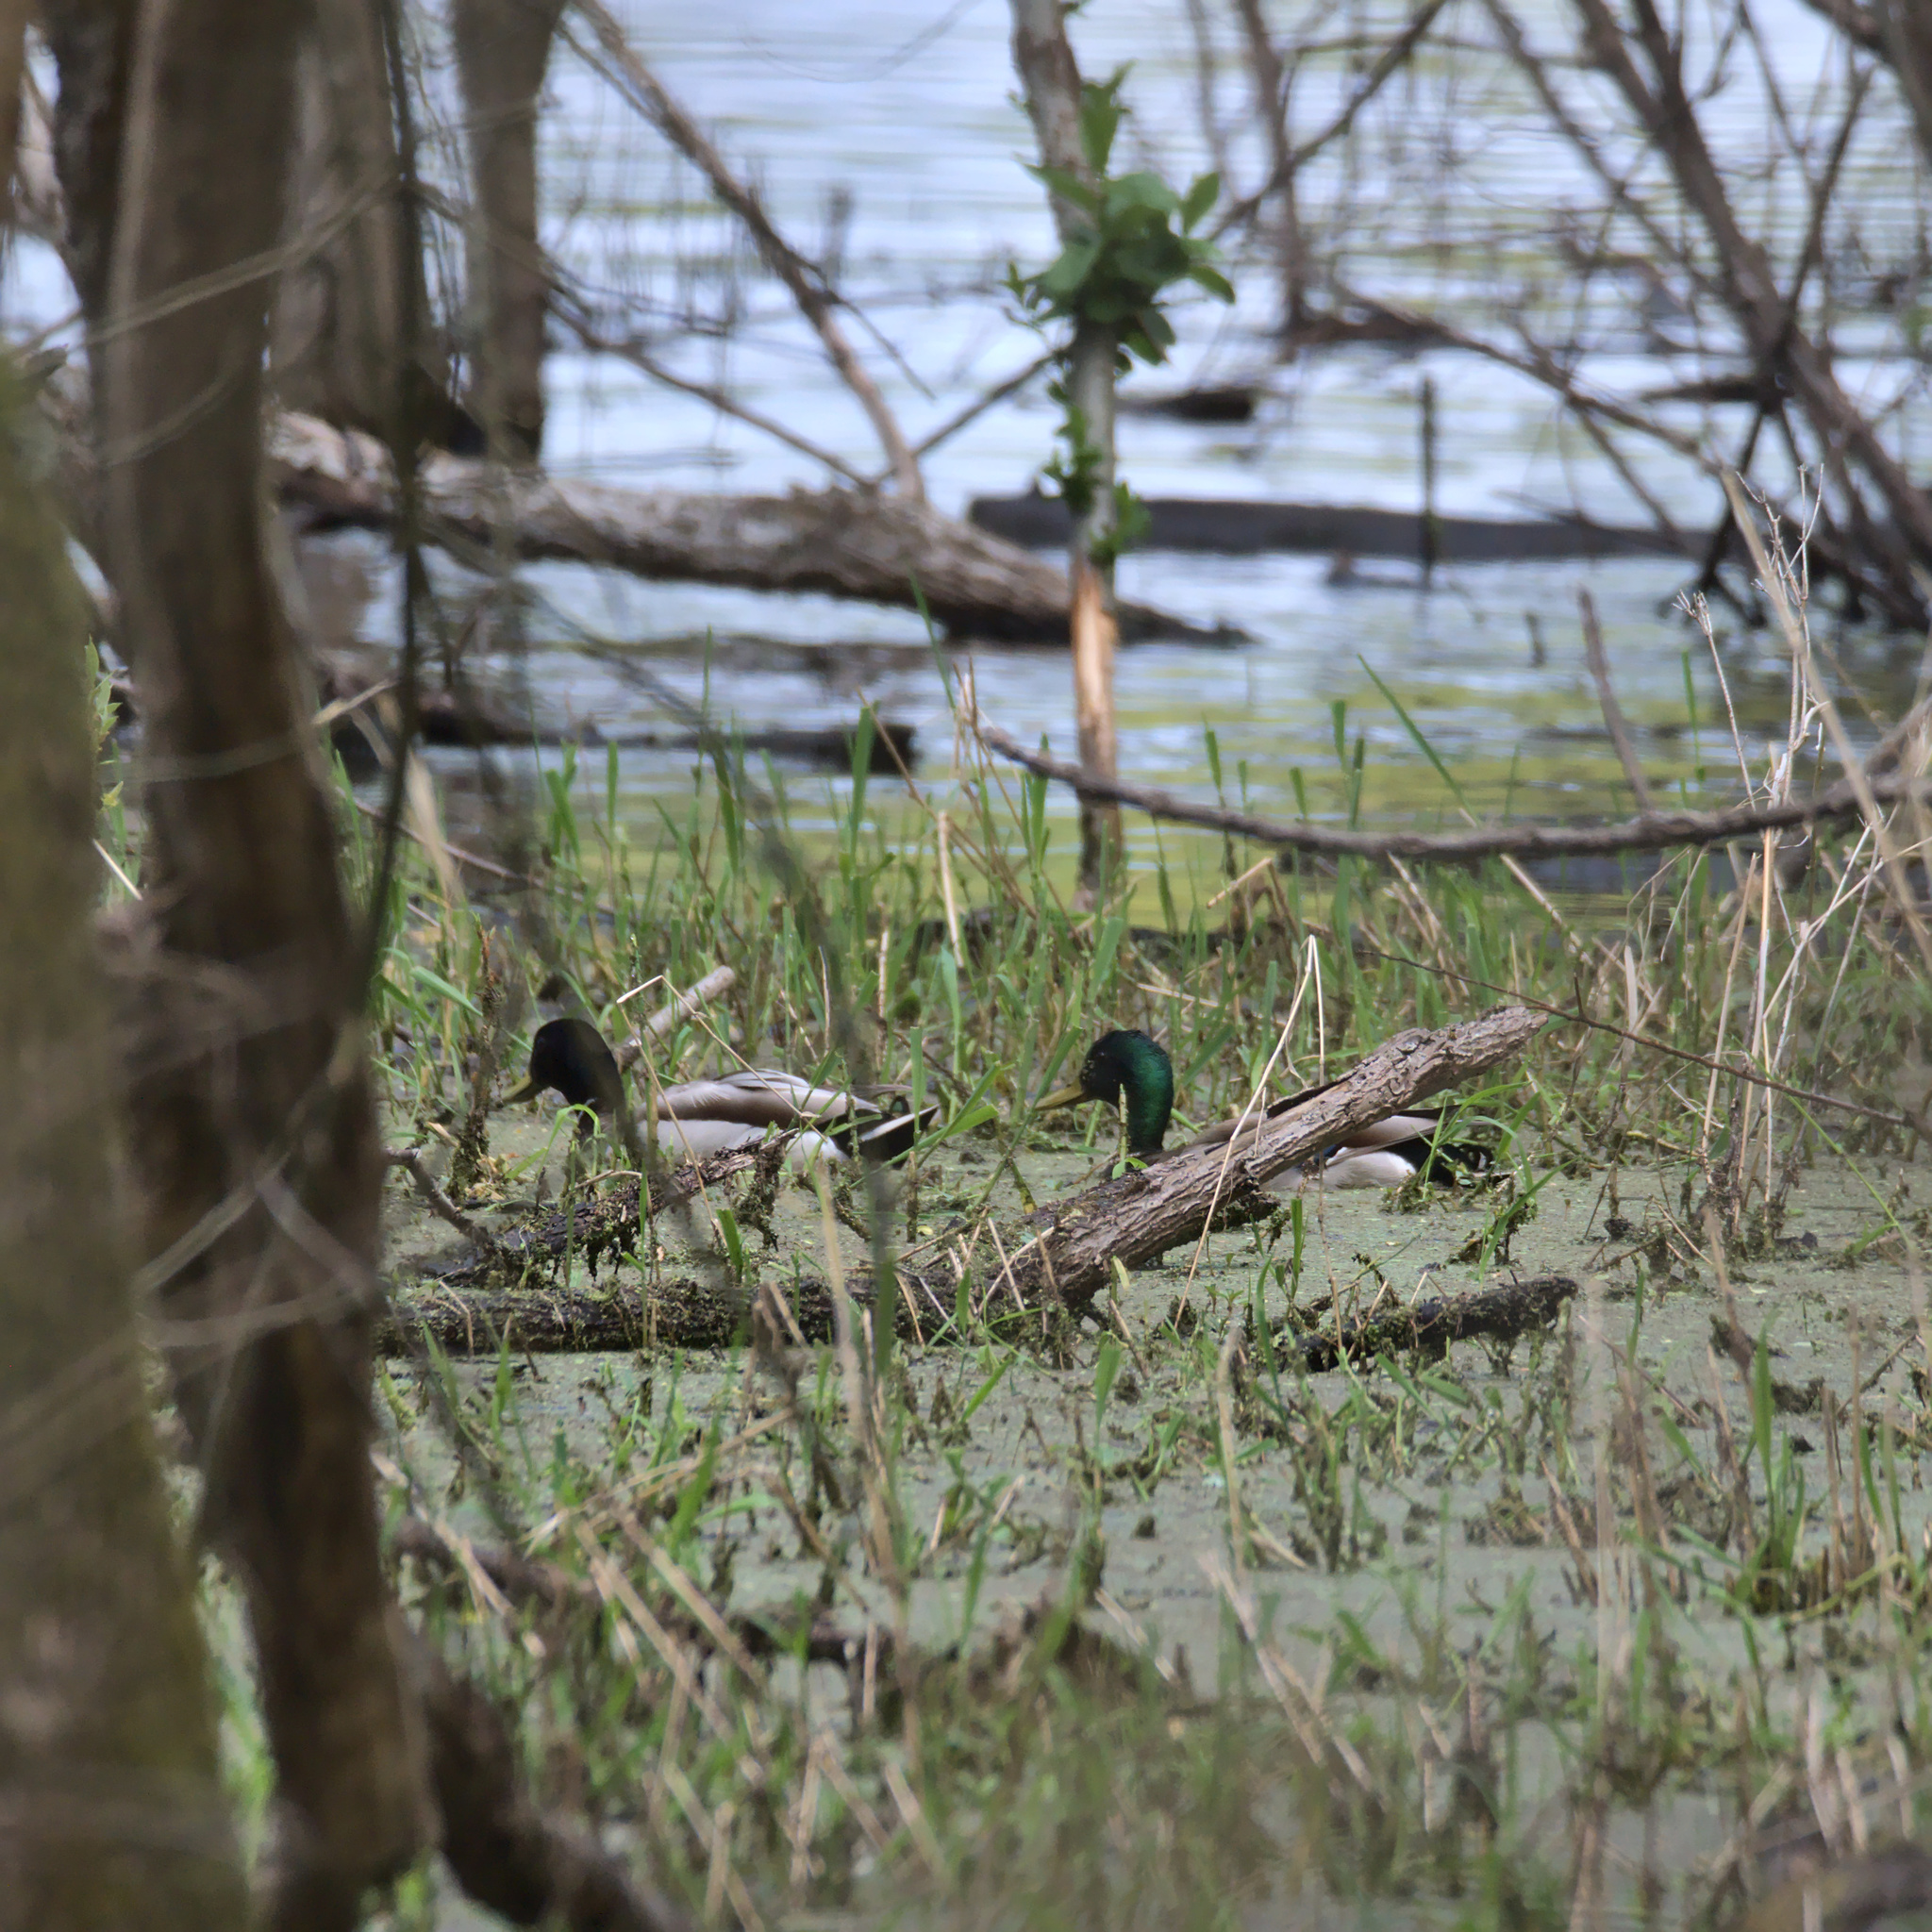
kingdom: Animalia
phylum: Chordata
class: Aves
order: Anseriformes
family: Anatidae
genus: Anas
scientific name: Anas platyrhynchos
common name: Mallard
